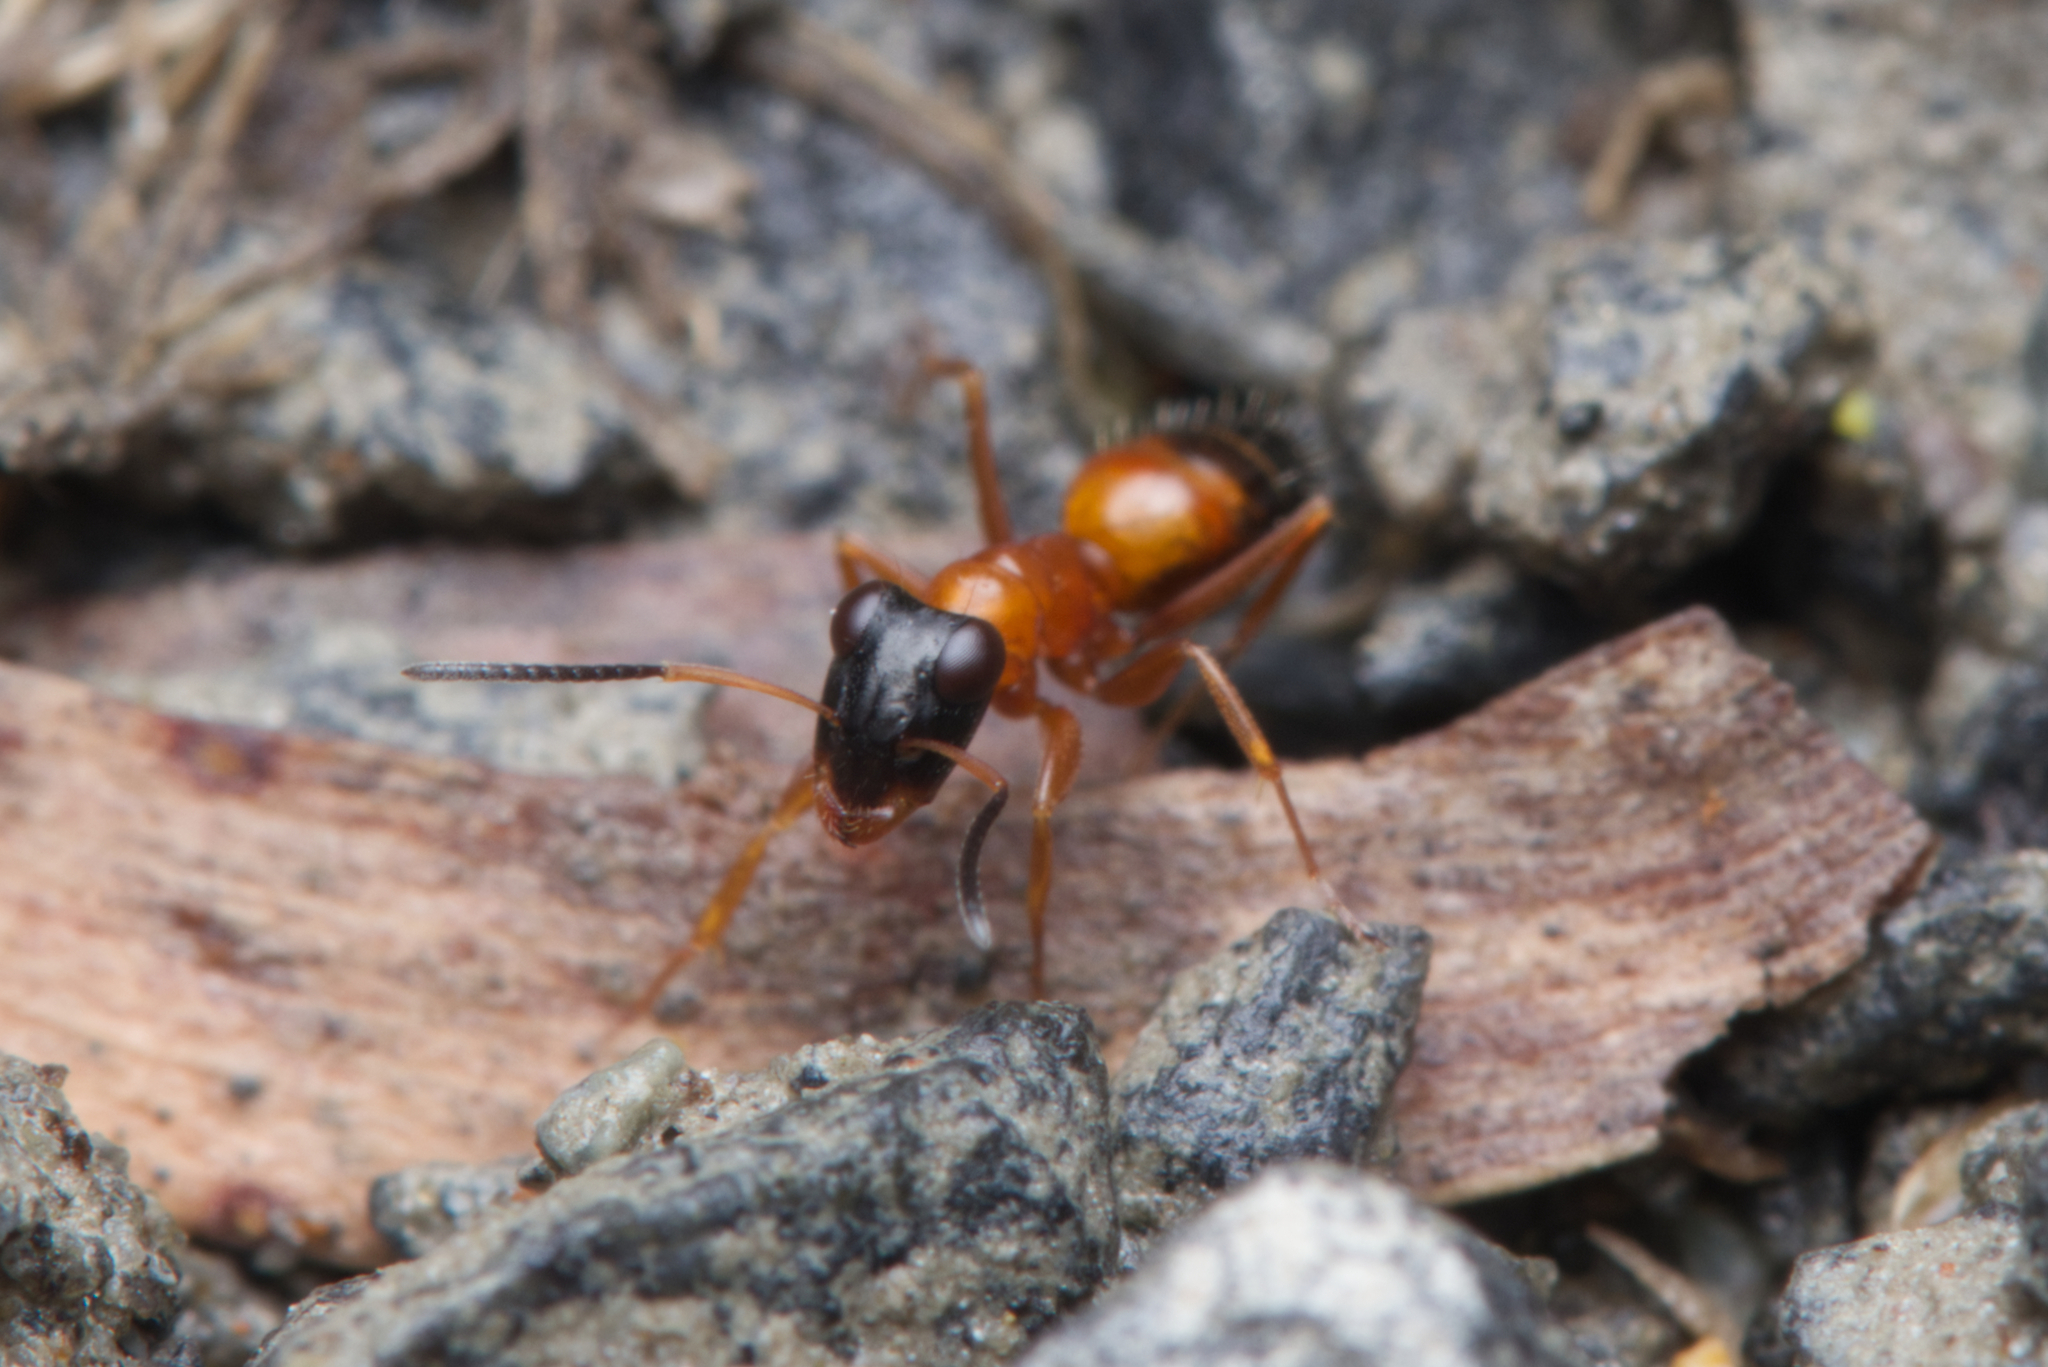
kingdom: Animalia
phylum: Arthropoda
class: Insecta
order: Hymenoptera
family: Formicidae
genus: Opisthopsis
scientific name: Opisthopsis rufithorax
